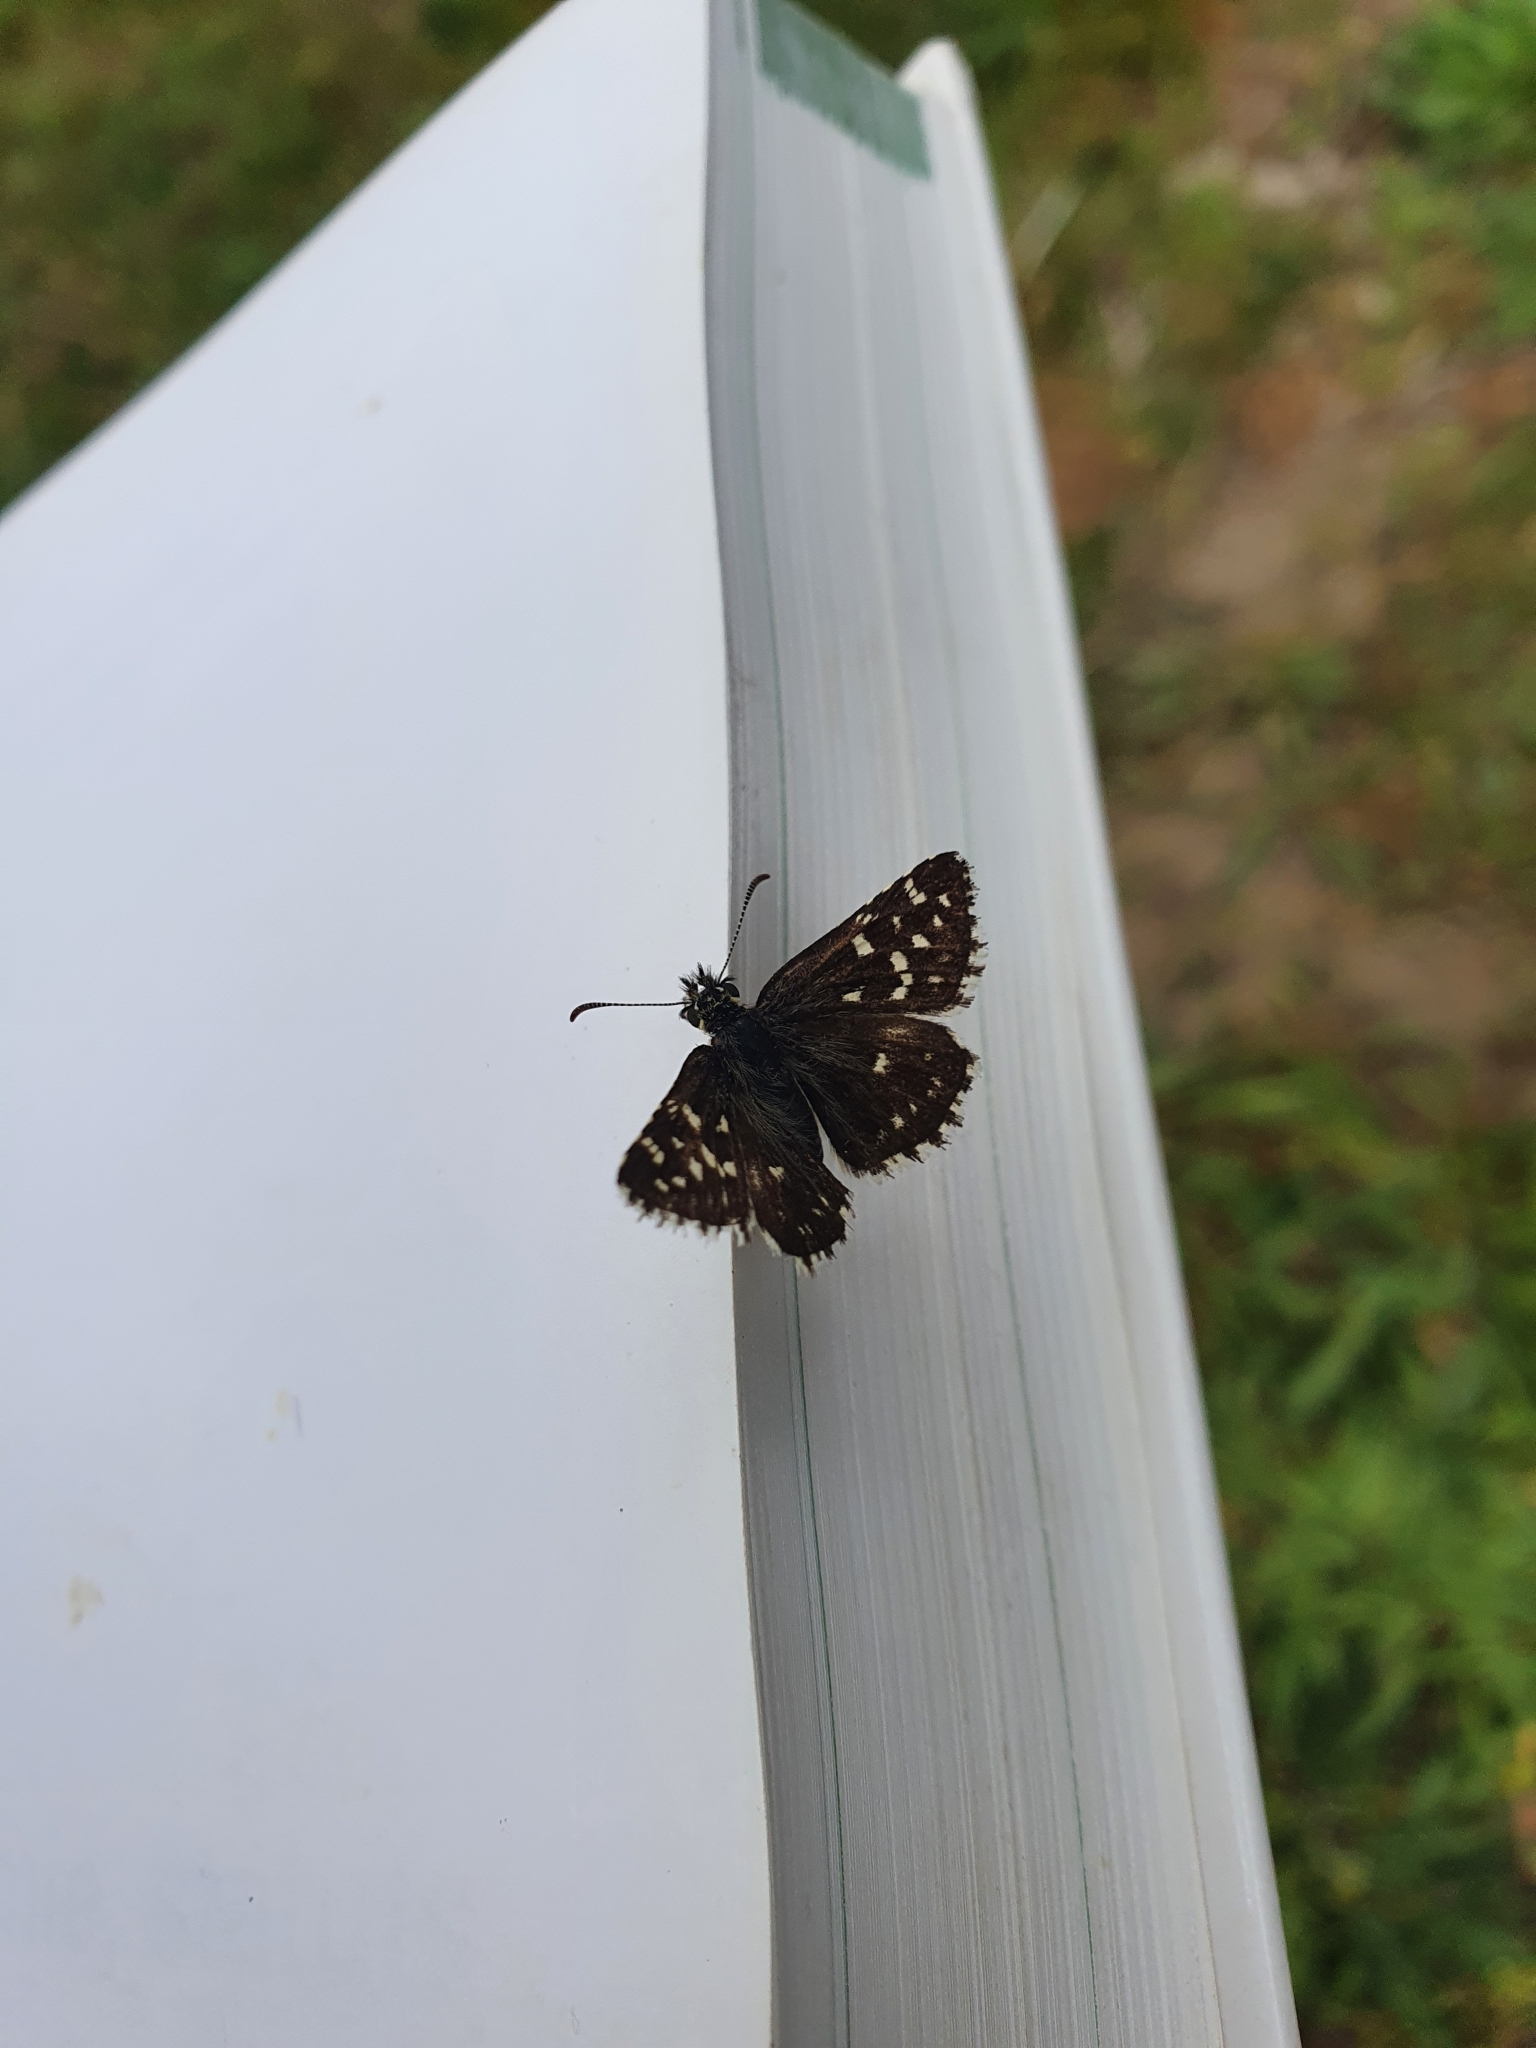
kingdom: Animalia
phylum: Arthropoda
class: Insecta
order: Lepidoptera
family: Hesperiidae
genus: Pyrgus
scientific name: Pyrgus malvae
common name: Grizzled skipper
